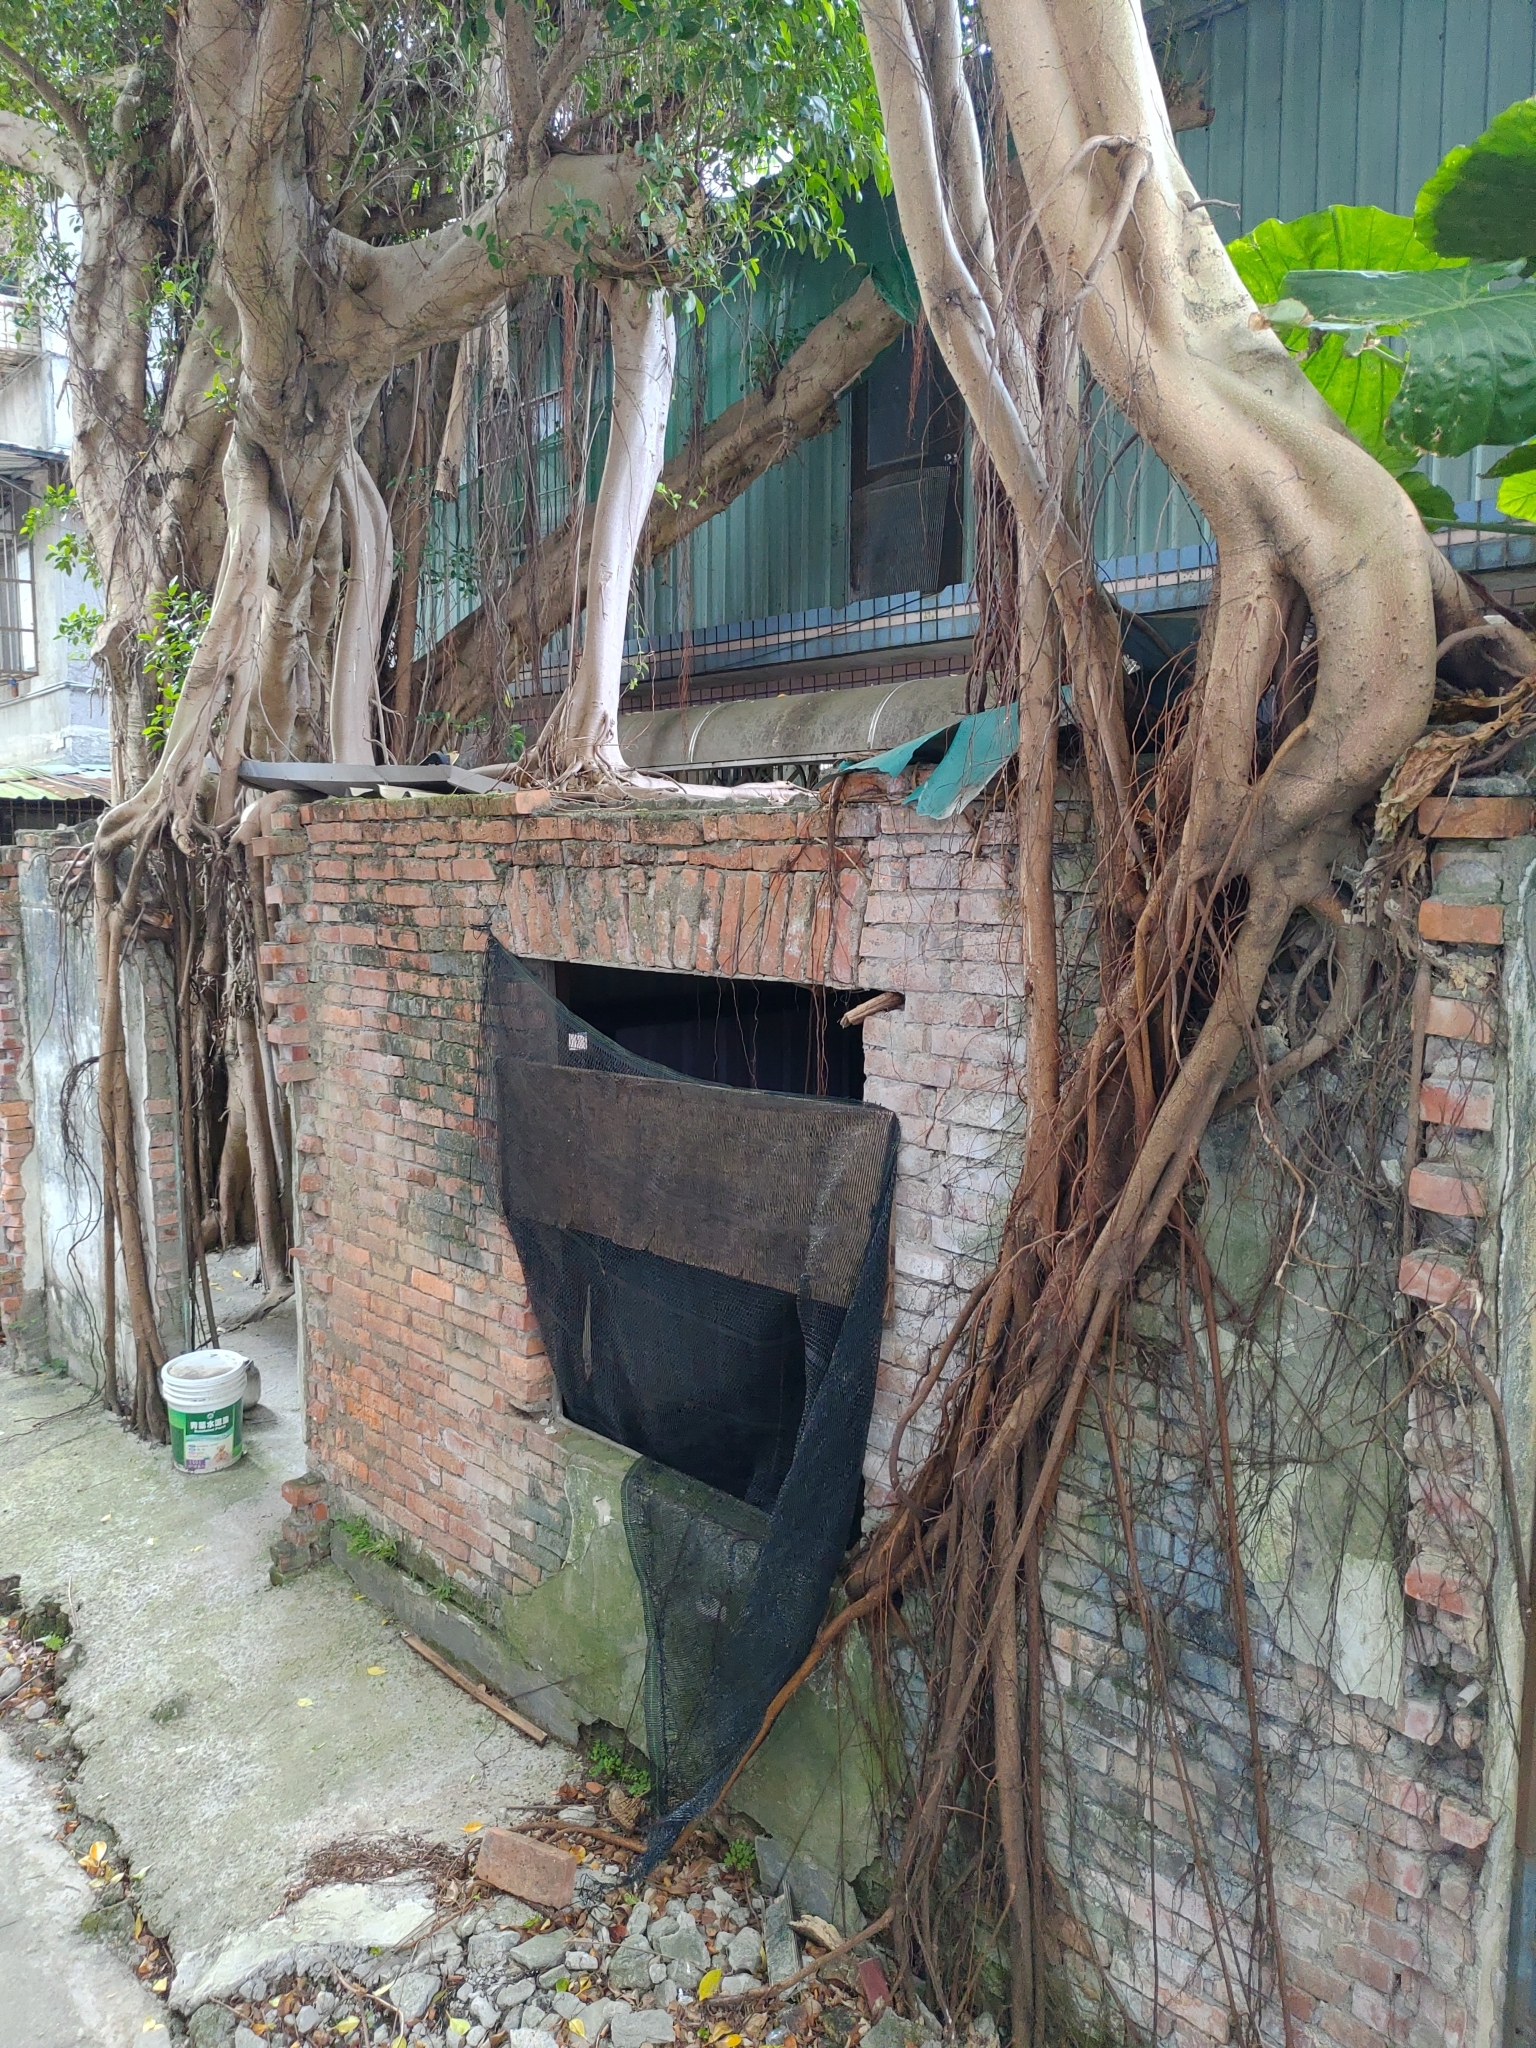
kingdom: Plantae
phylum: Tracheophyta
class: Magnoliopsida
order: Rosales
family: Moraceae
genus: Ficus
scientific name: Ficus microcarpa
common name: Chinese banyan
